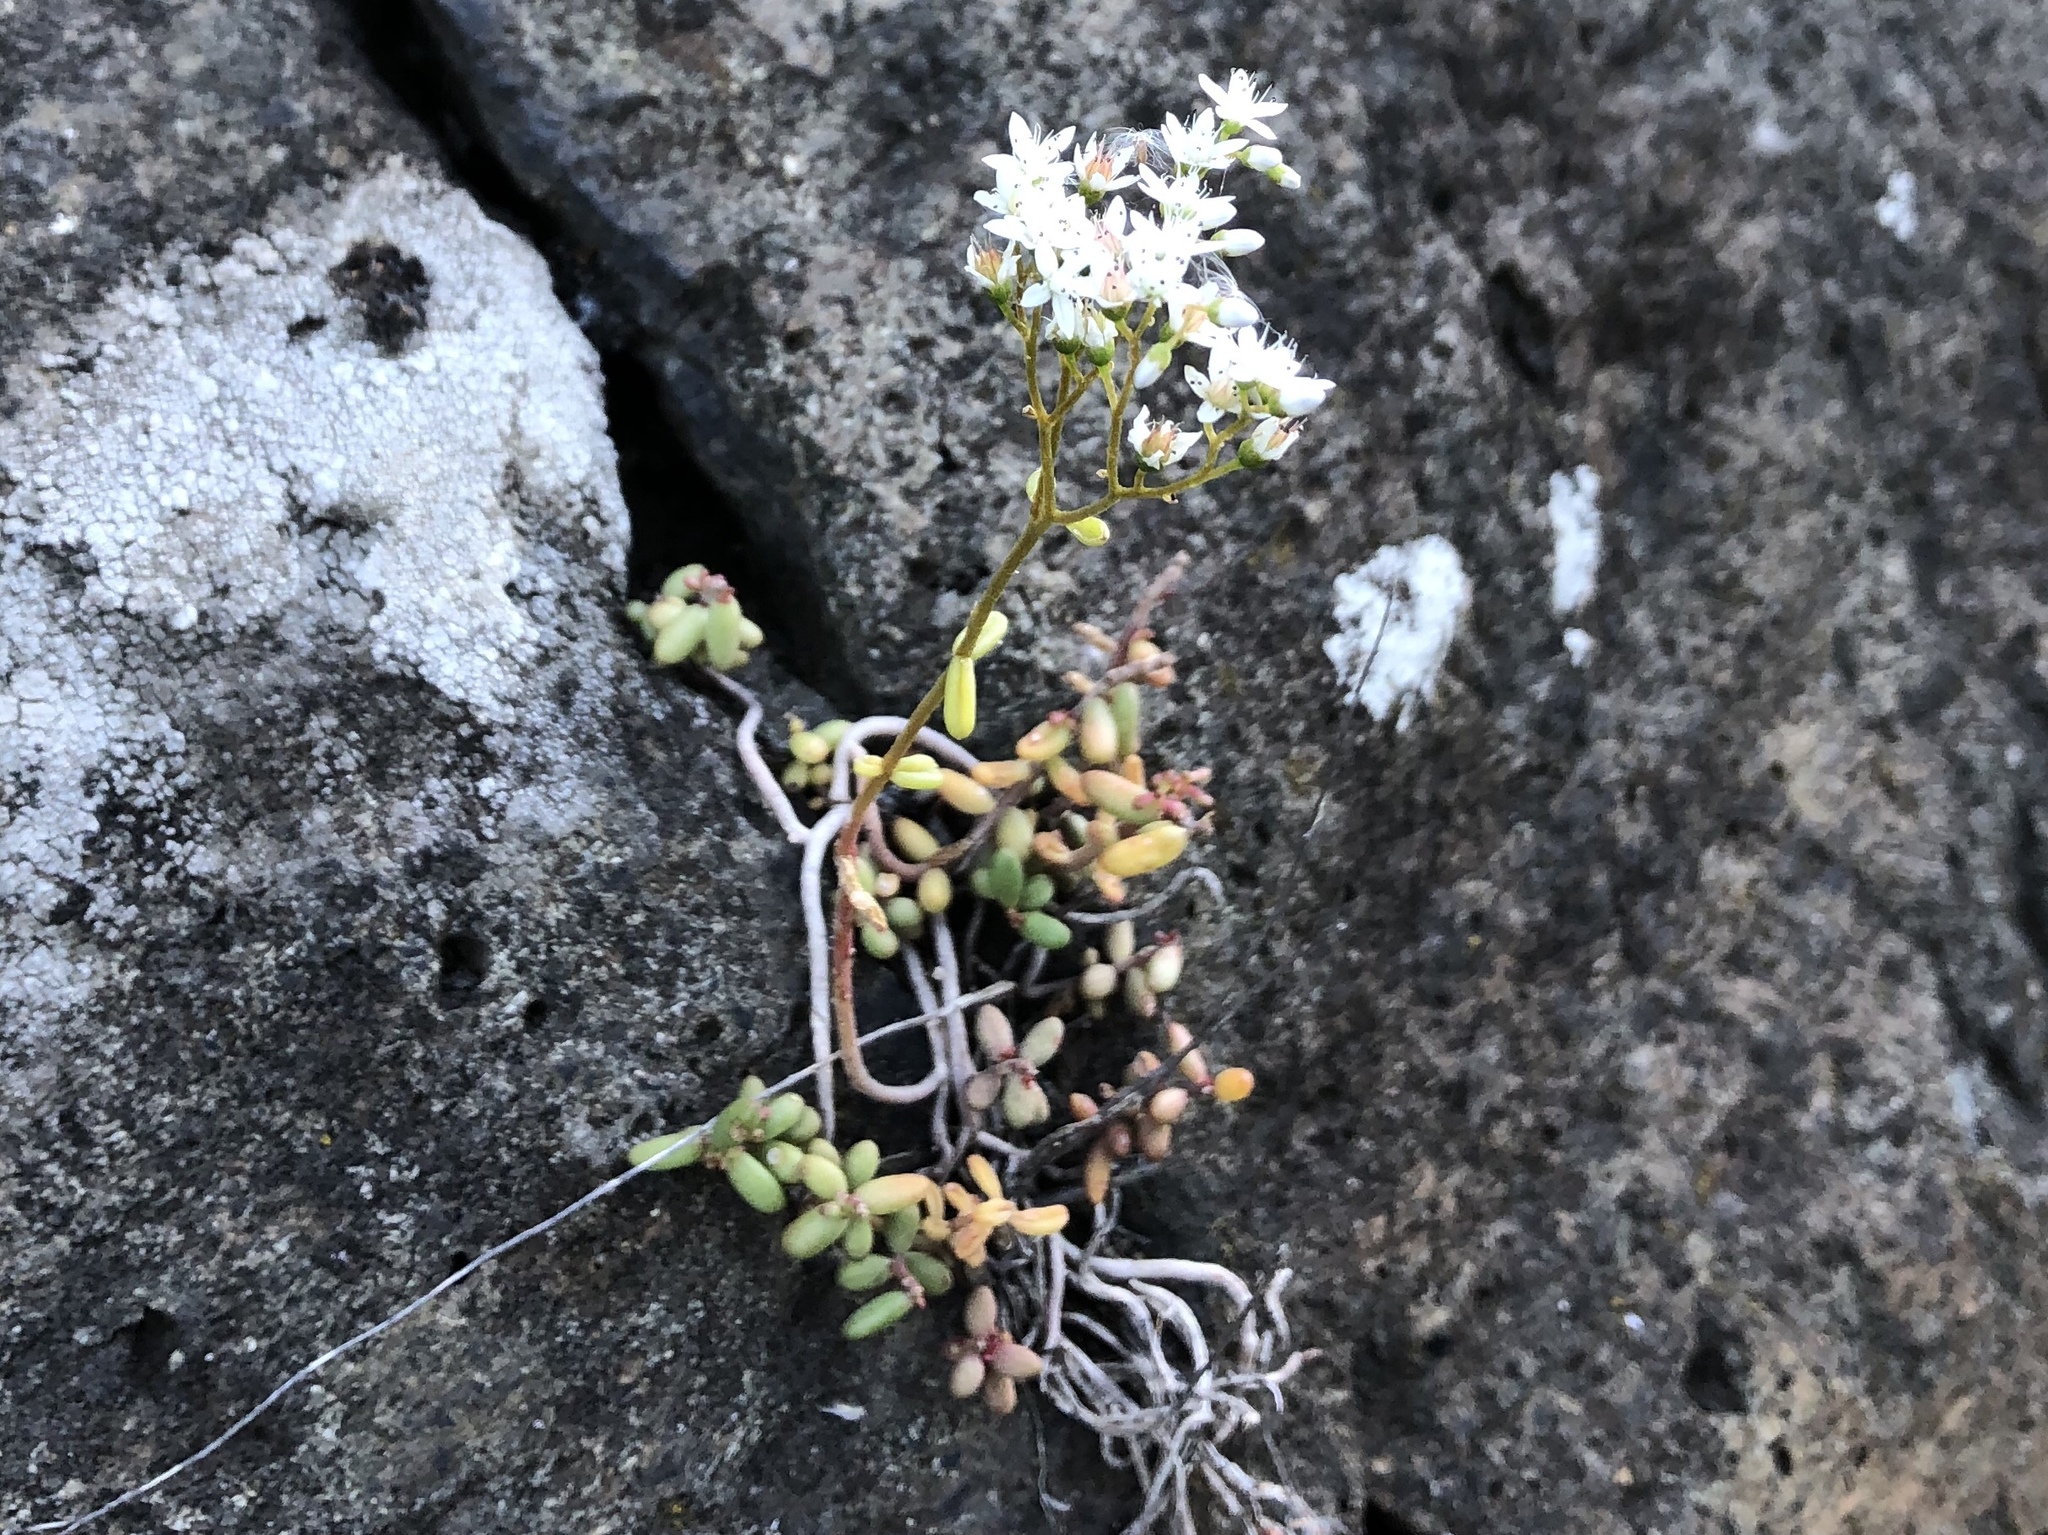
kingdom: Plantae
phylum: Tracheophyta
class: Magnoliopsida
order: Saxifragales
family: Crassulaceae
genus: Sedum
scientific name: Sedum album
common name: White stonecrop
